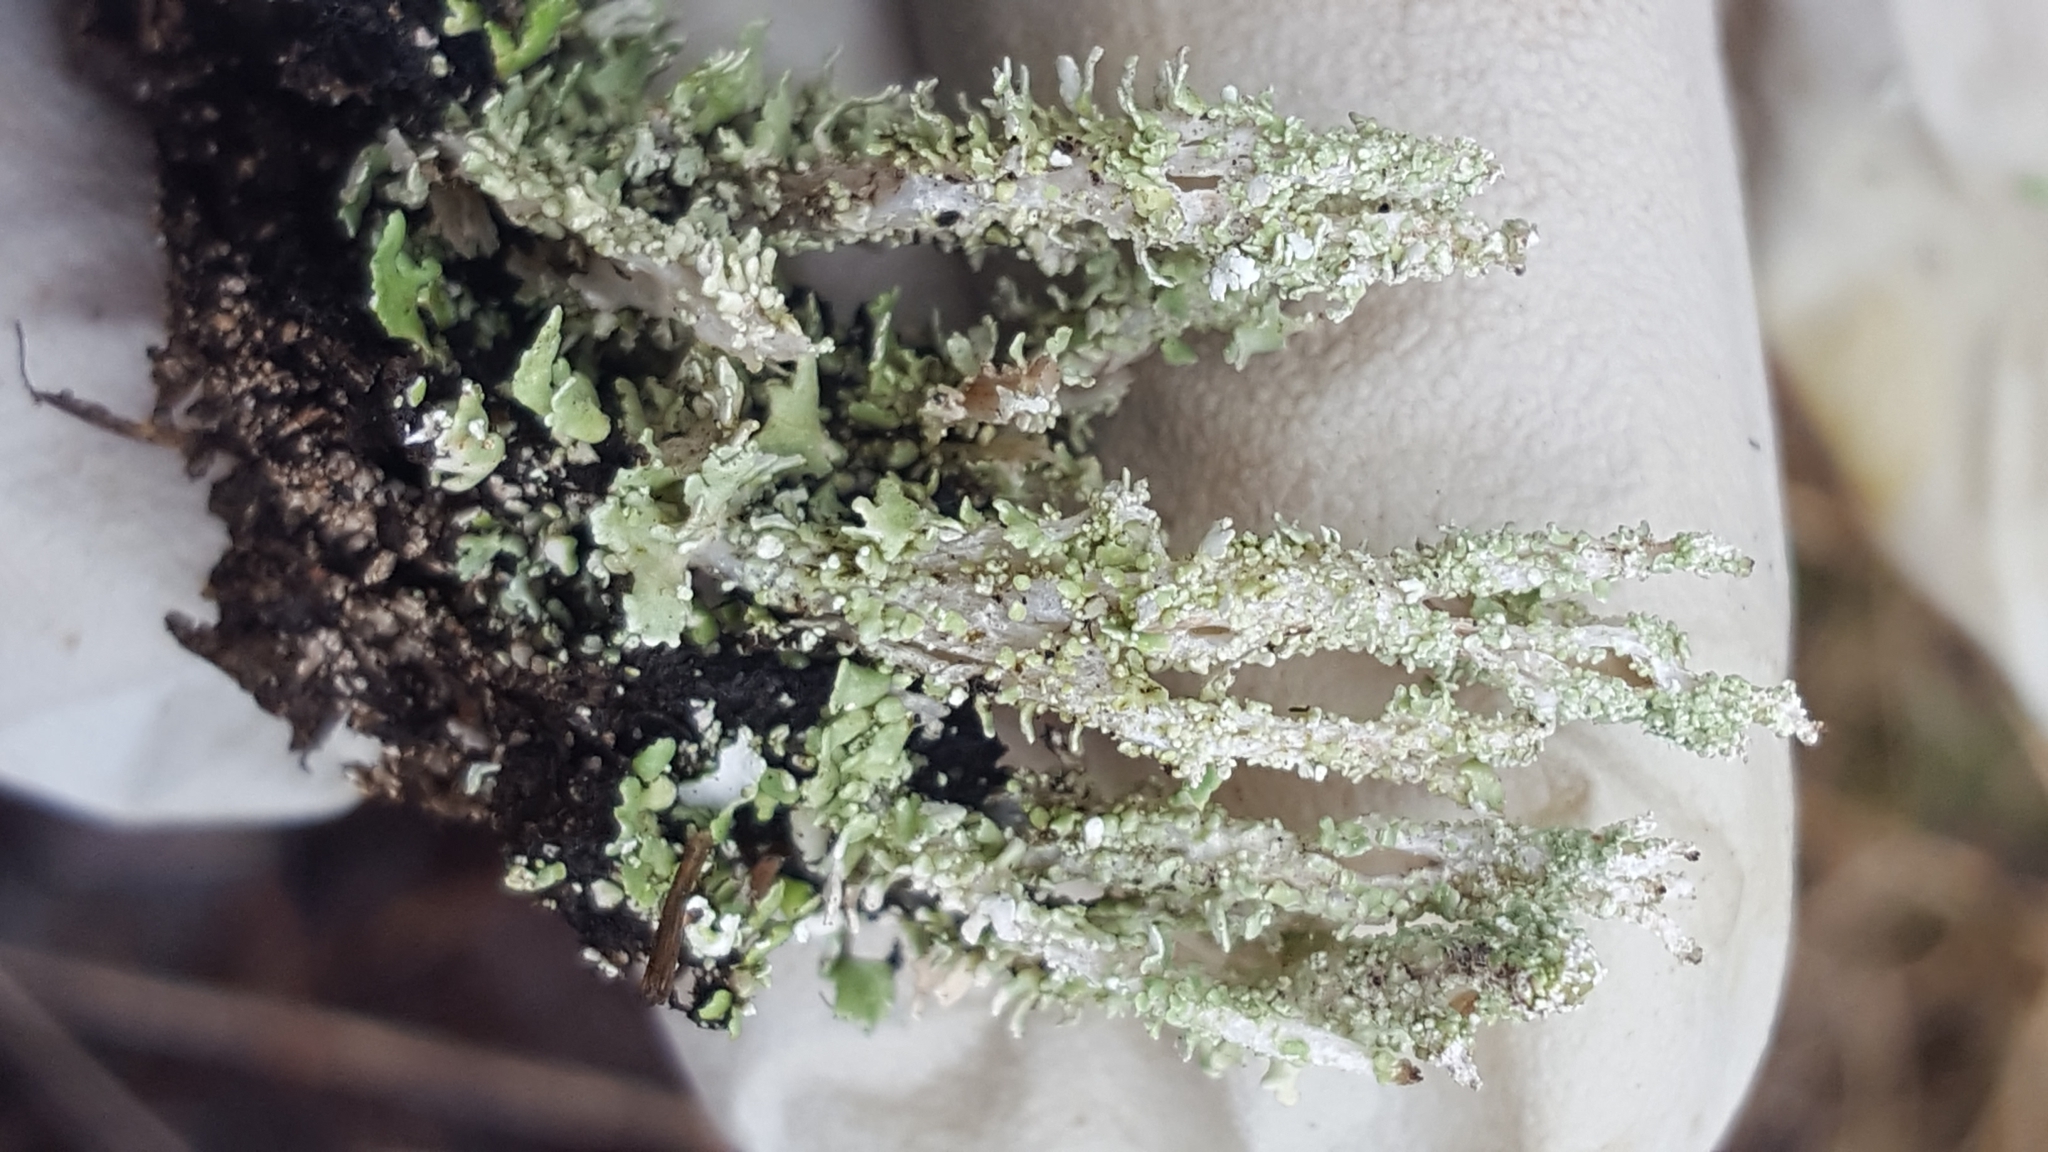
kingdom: Fungi
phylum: Ascomycota
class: Lecanoromycetes
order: Lecanorales
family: Cladoniaceae
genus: Cladonia
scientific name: Cladonia squamosa
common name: Dragon horn
